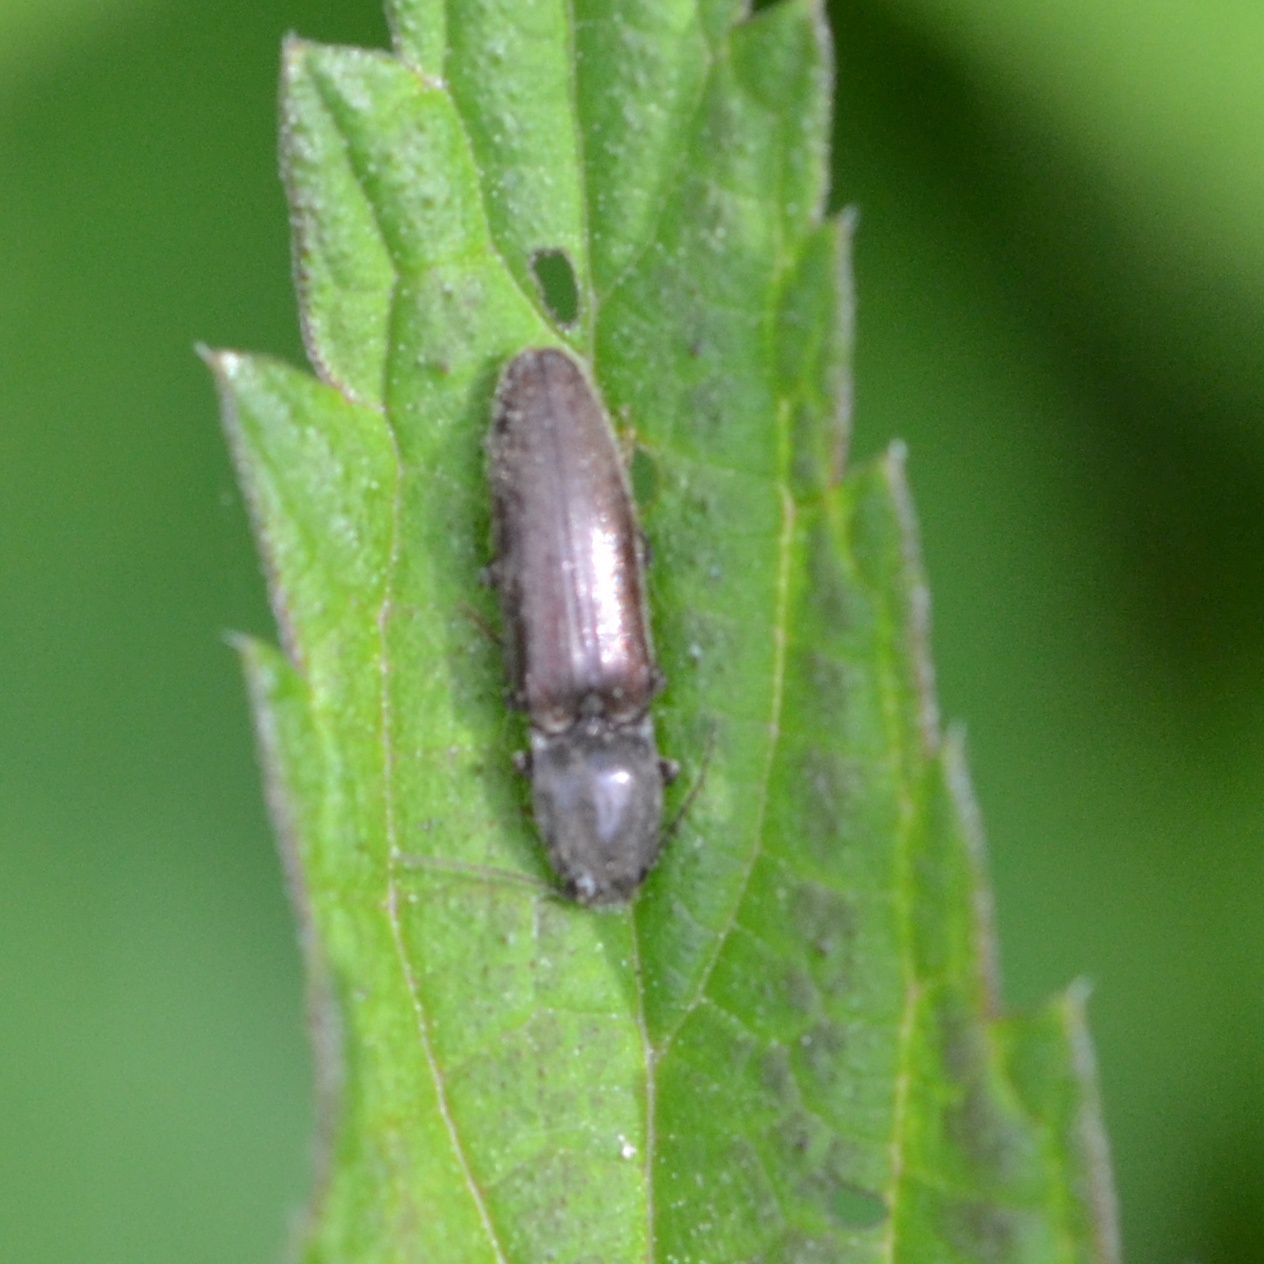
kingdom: Animalia
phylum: Arthropoda
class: Insecta
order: Coleoptera
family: Elateridae
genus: Athous
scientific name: Athous haemorrhoidalis
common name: Red-brown click beetle
